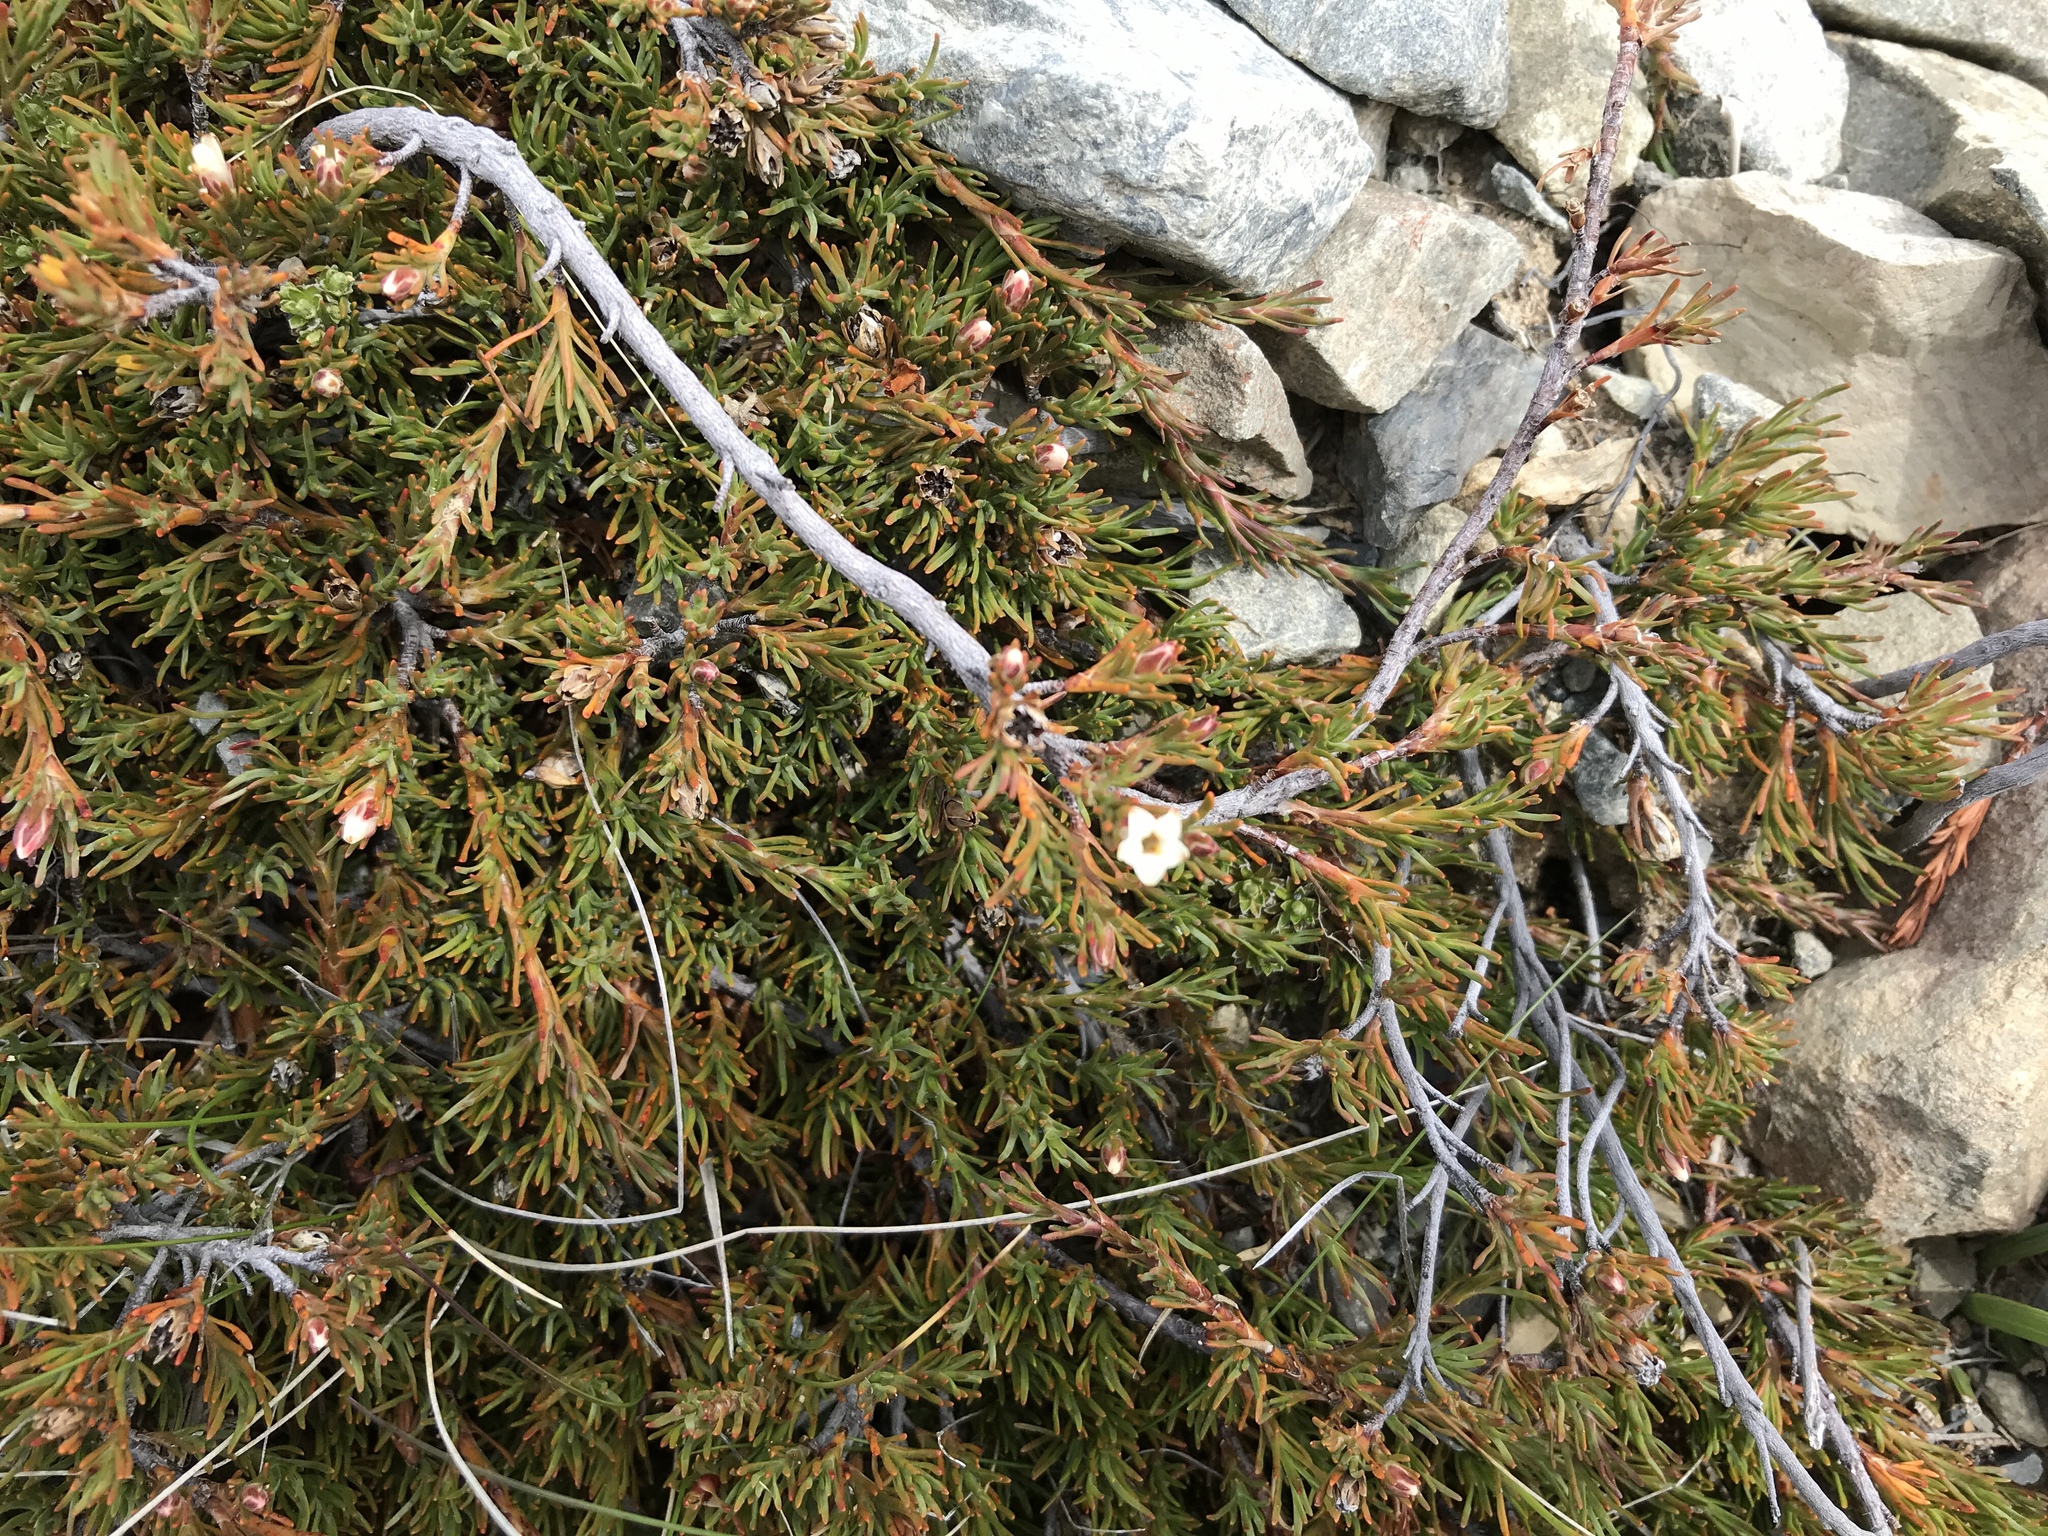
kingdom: Plantae
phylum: Tracheophyta
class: Magnoliopsida
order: Ericales
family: Ericaceae
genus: Dracophyllum
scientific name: Dracophyllum pronum
